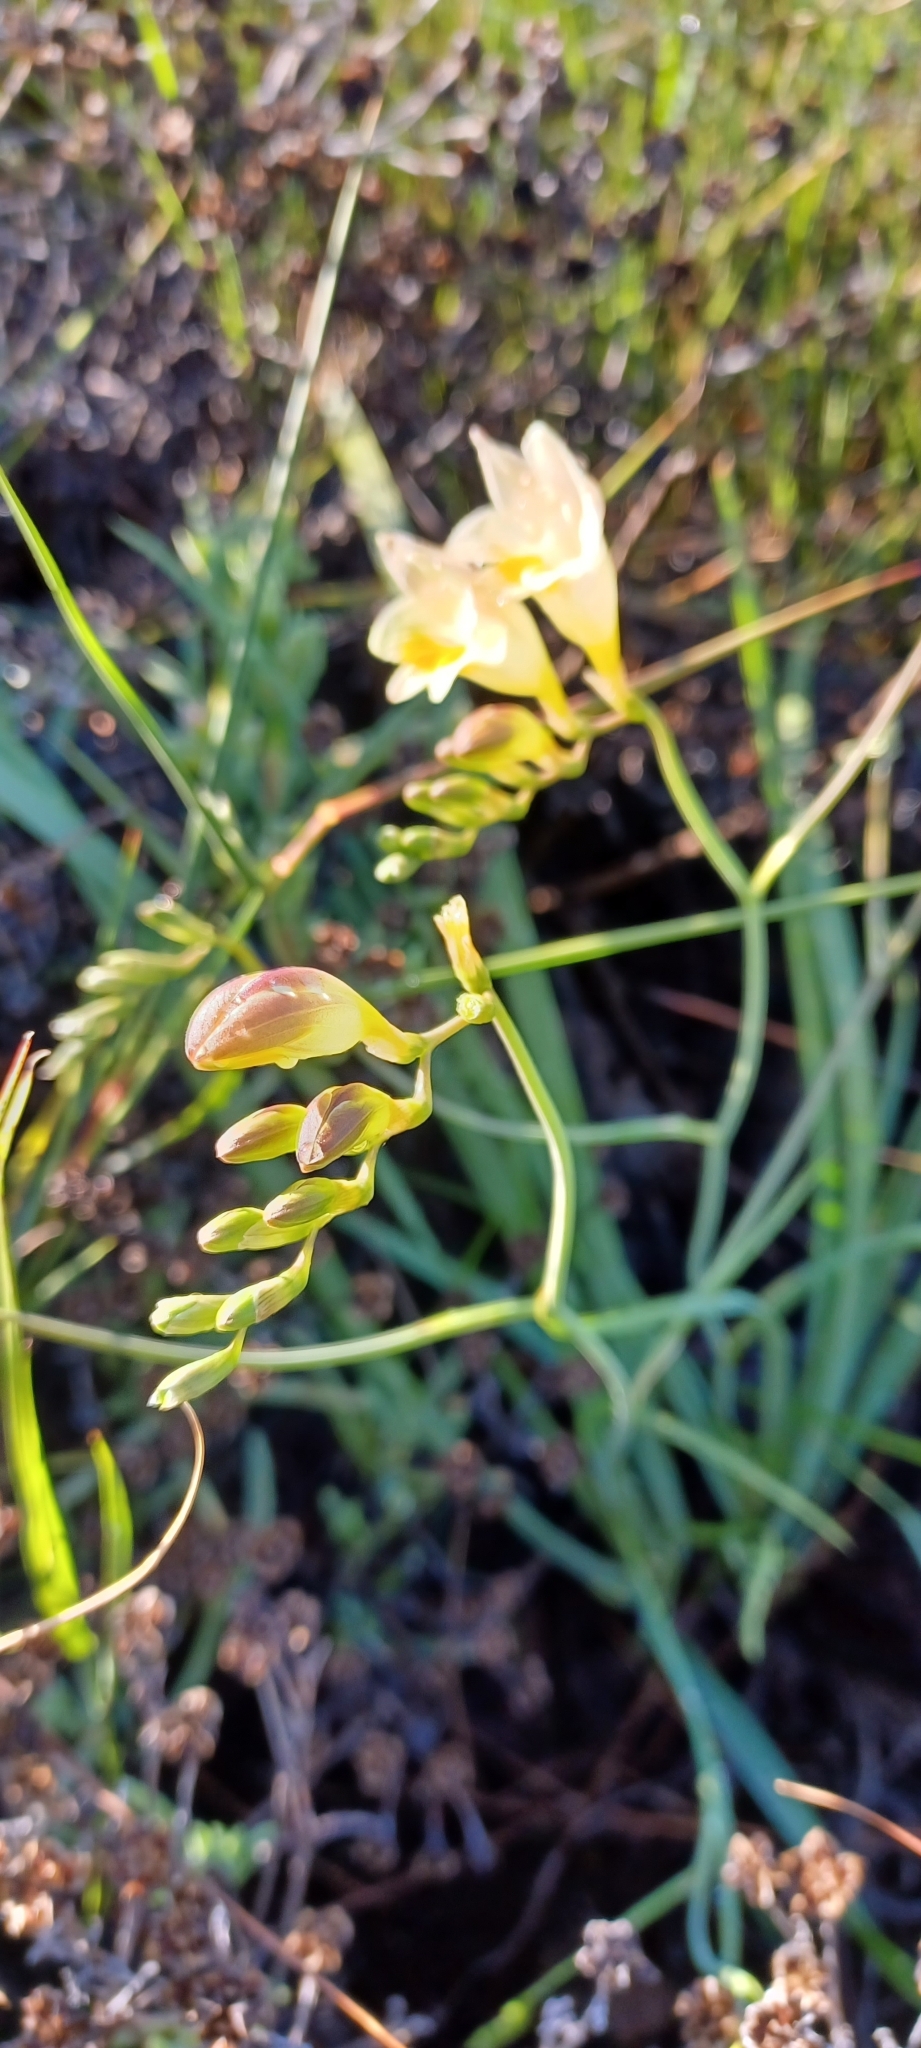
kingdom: Plantae
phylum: Tracheophyta
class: Liliopsida
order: Asparagales
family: Iridaceae
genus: Freesia
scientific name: Freesia refracta
